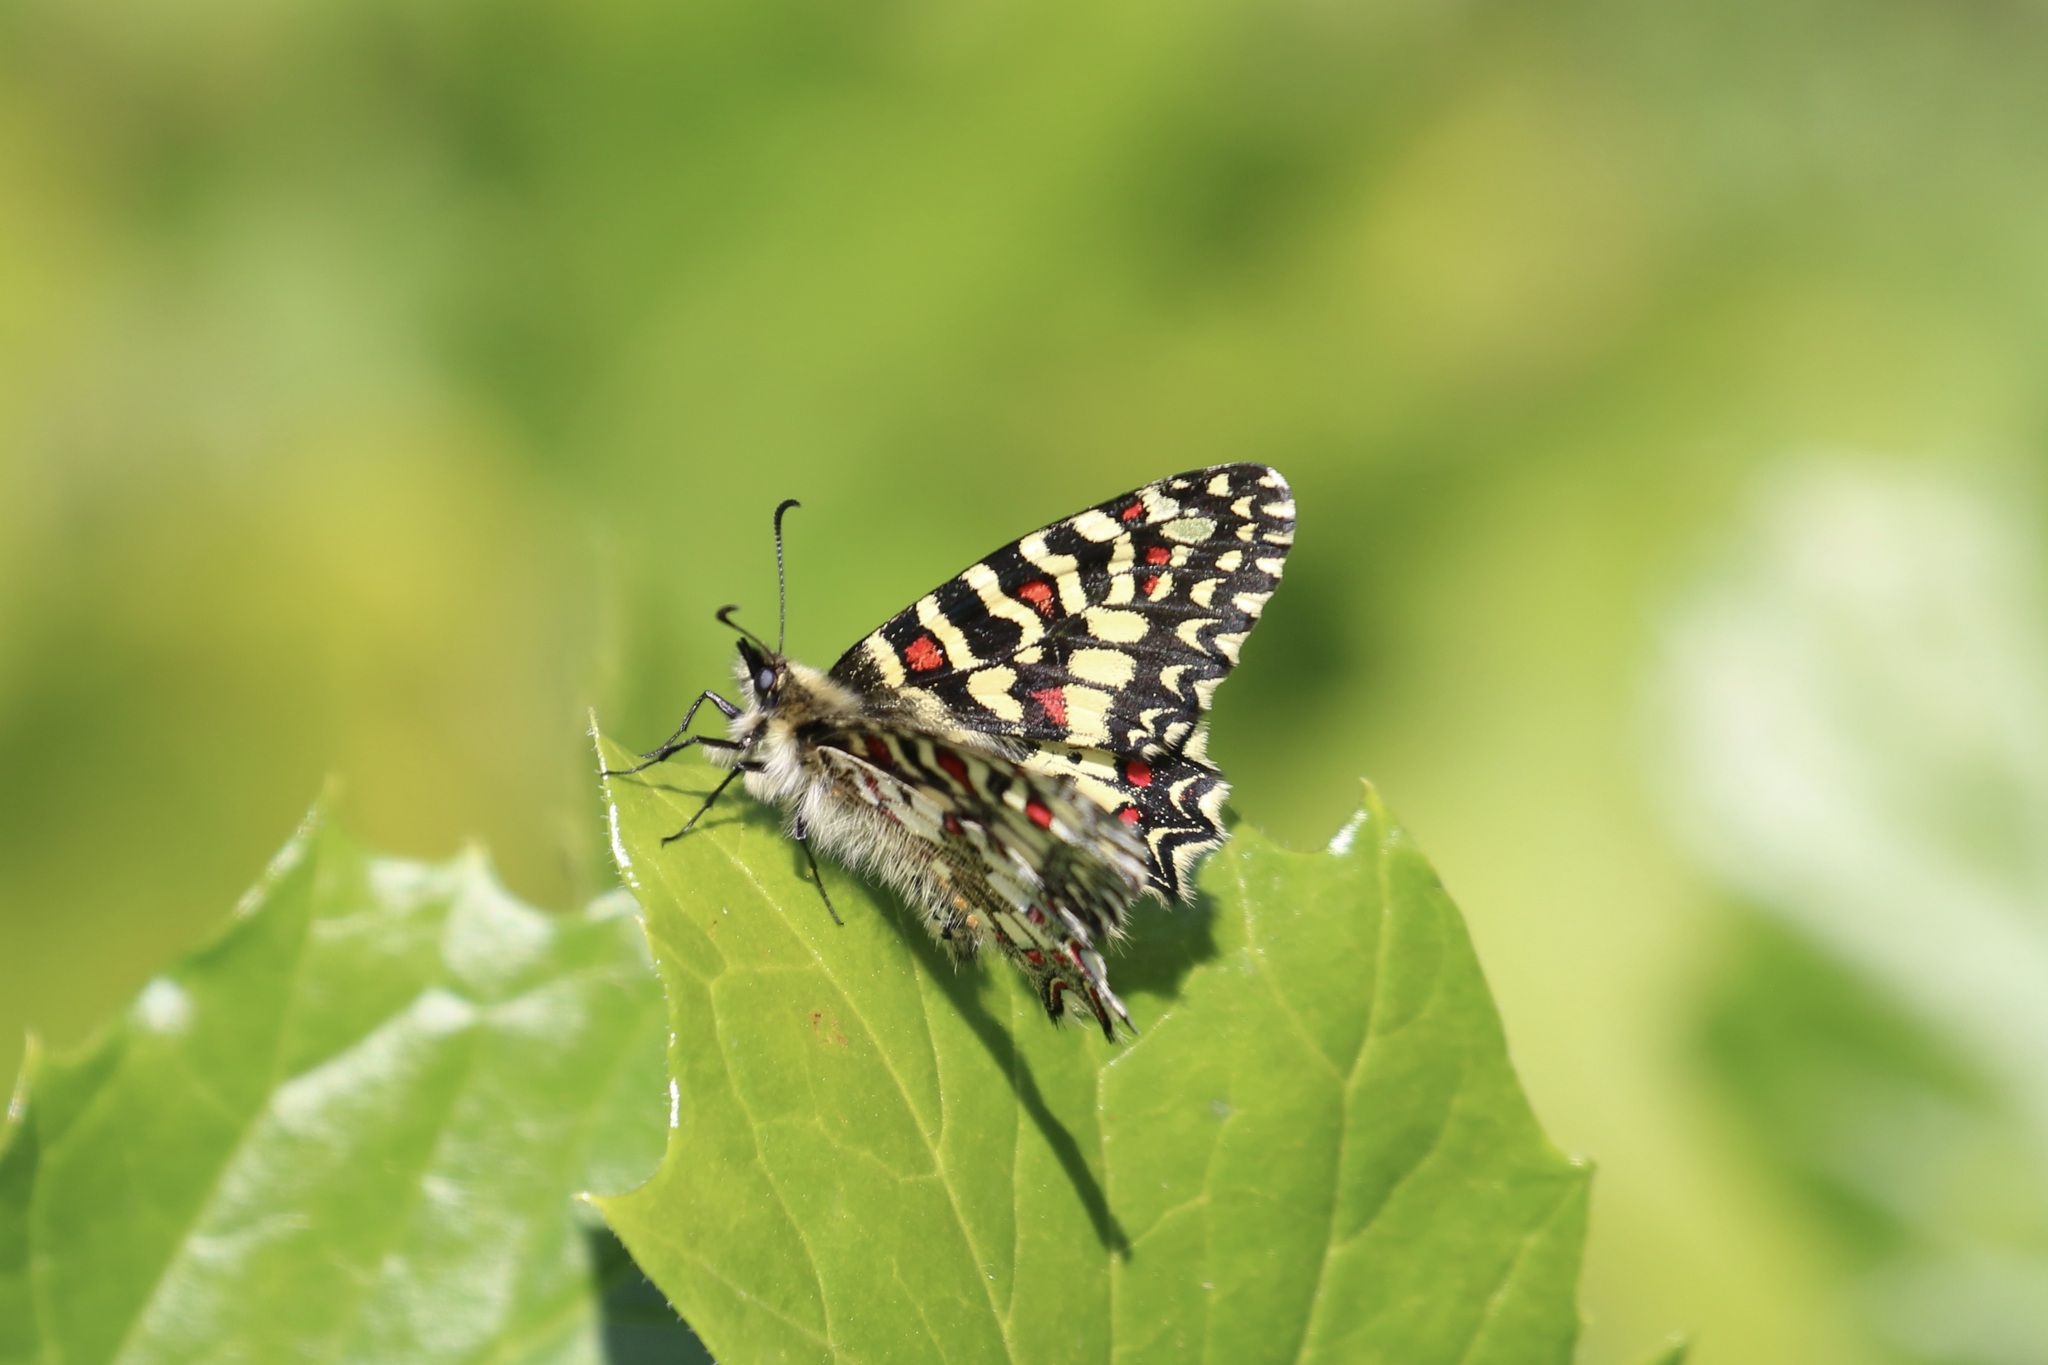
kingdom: Animalia
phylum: Arthropoda
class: Insecta
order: Lepidoptera
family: Papilionidae
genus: Zerynthia
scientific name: Zerynthia rumina
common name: Spanish festoon
